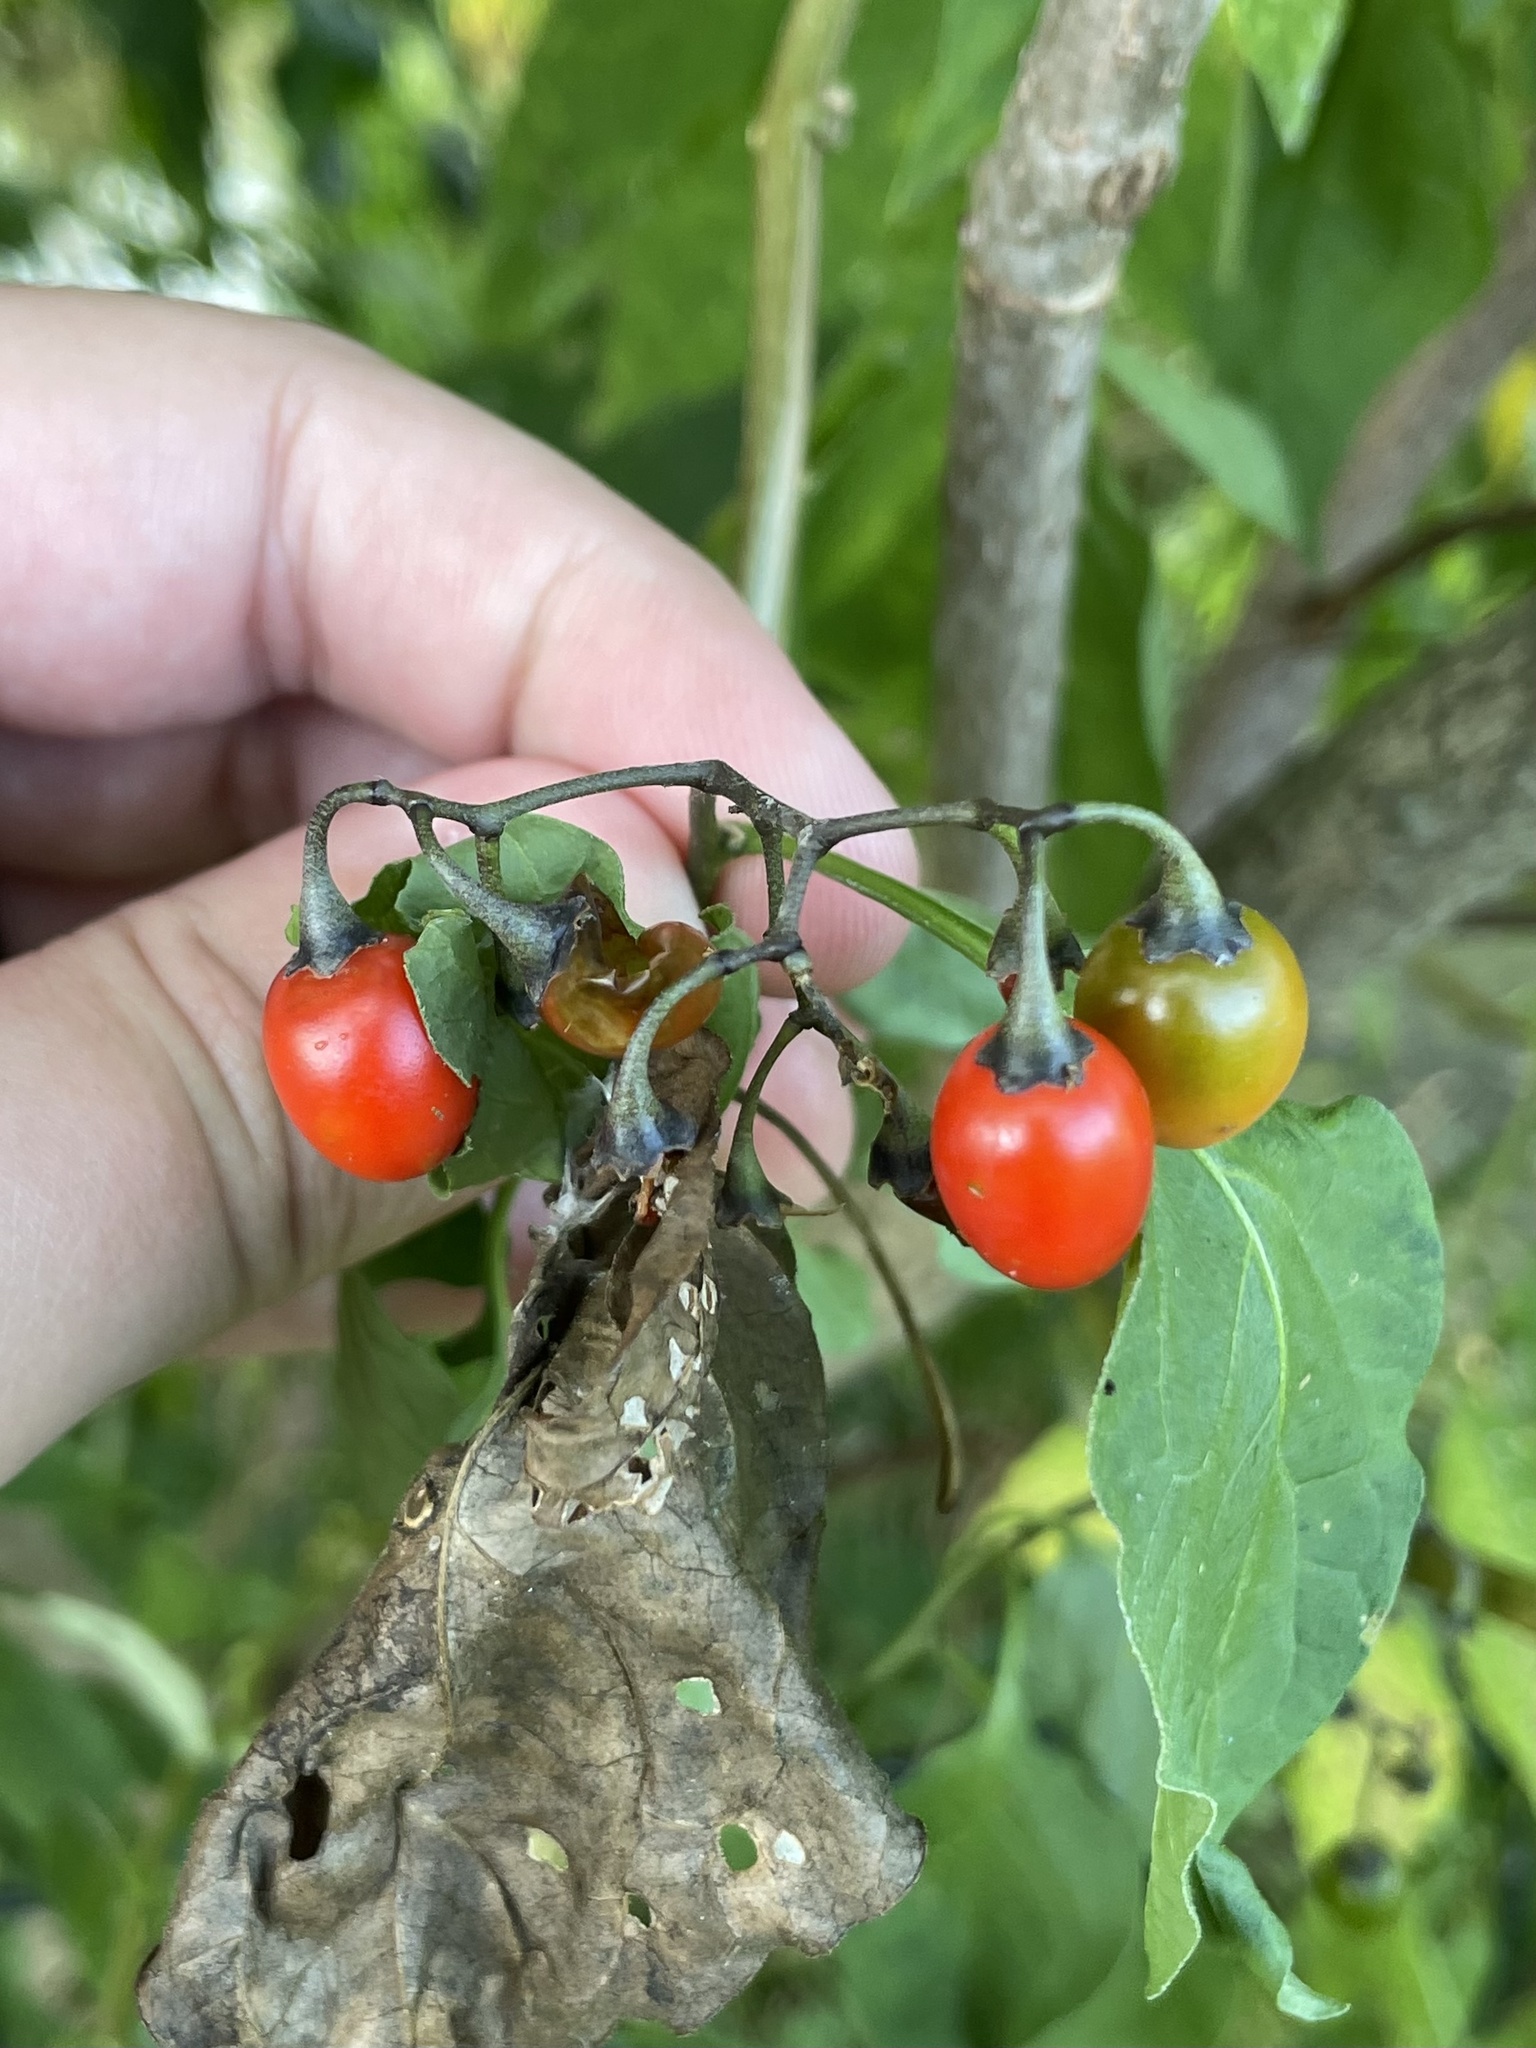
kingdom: Plantae
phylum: Tracheophyta
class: Magnoliopsida
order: Solanales
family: Solanaceae
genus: Solanum
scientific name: Solanum dulcamara
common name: Climbing nightshade
